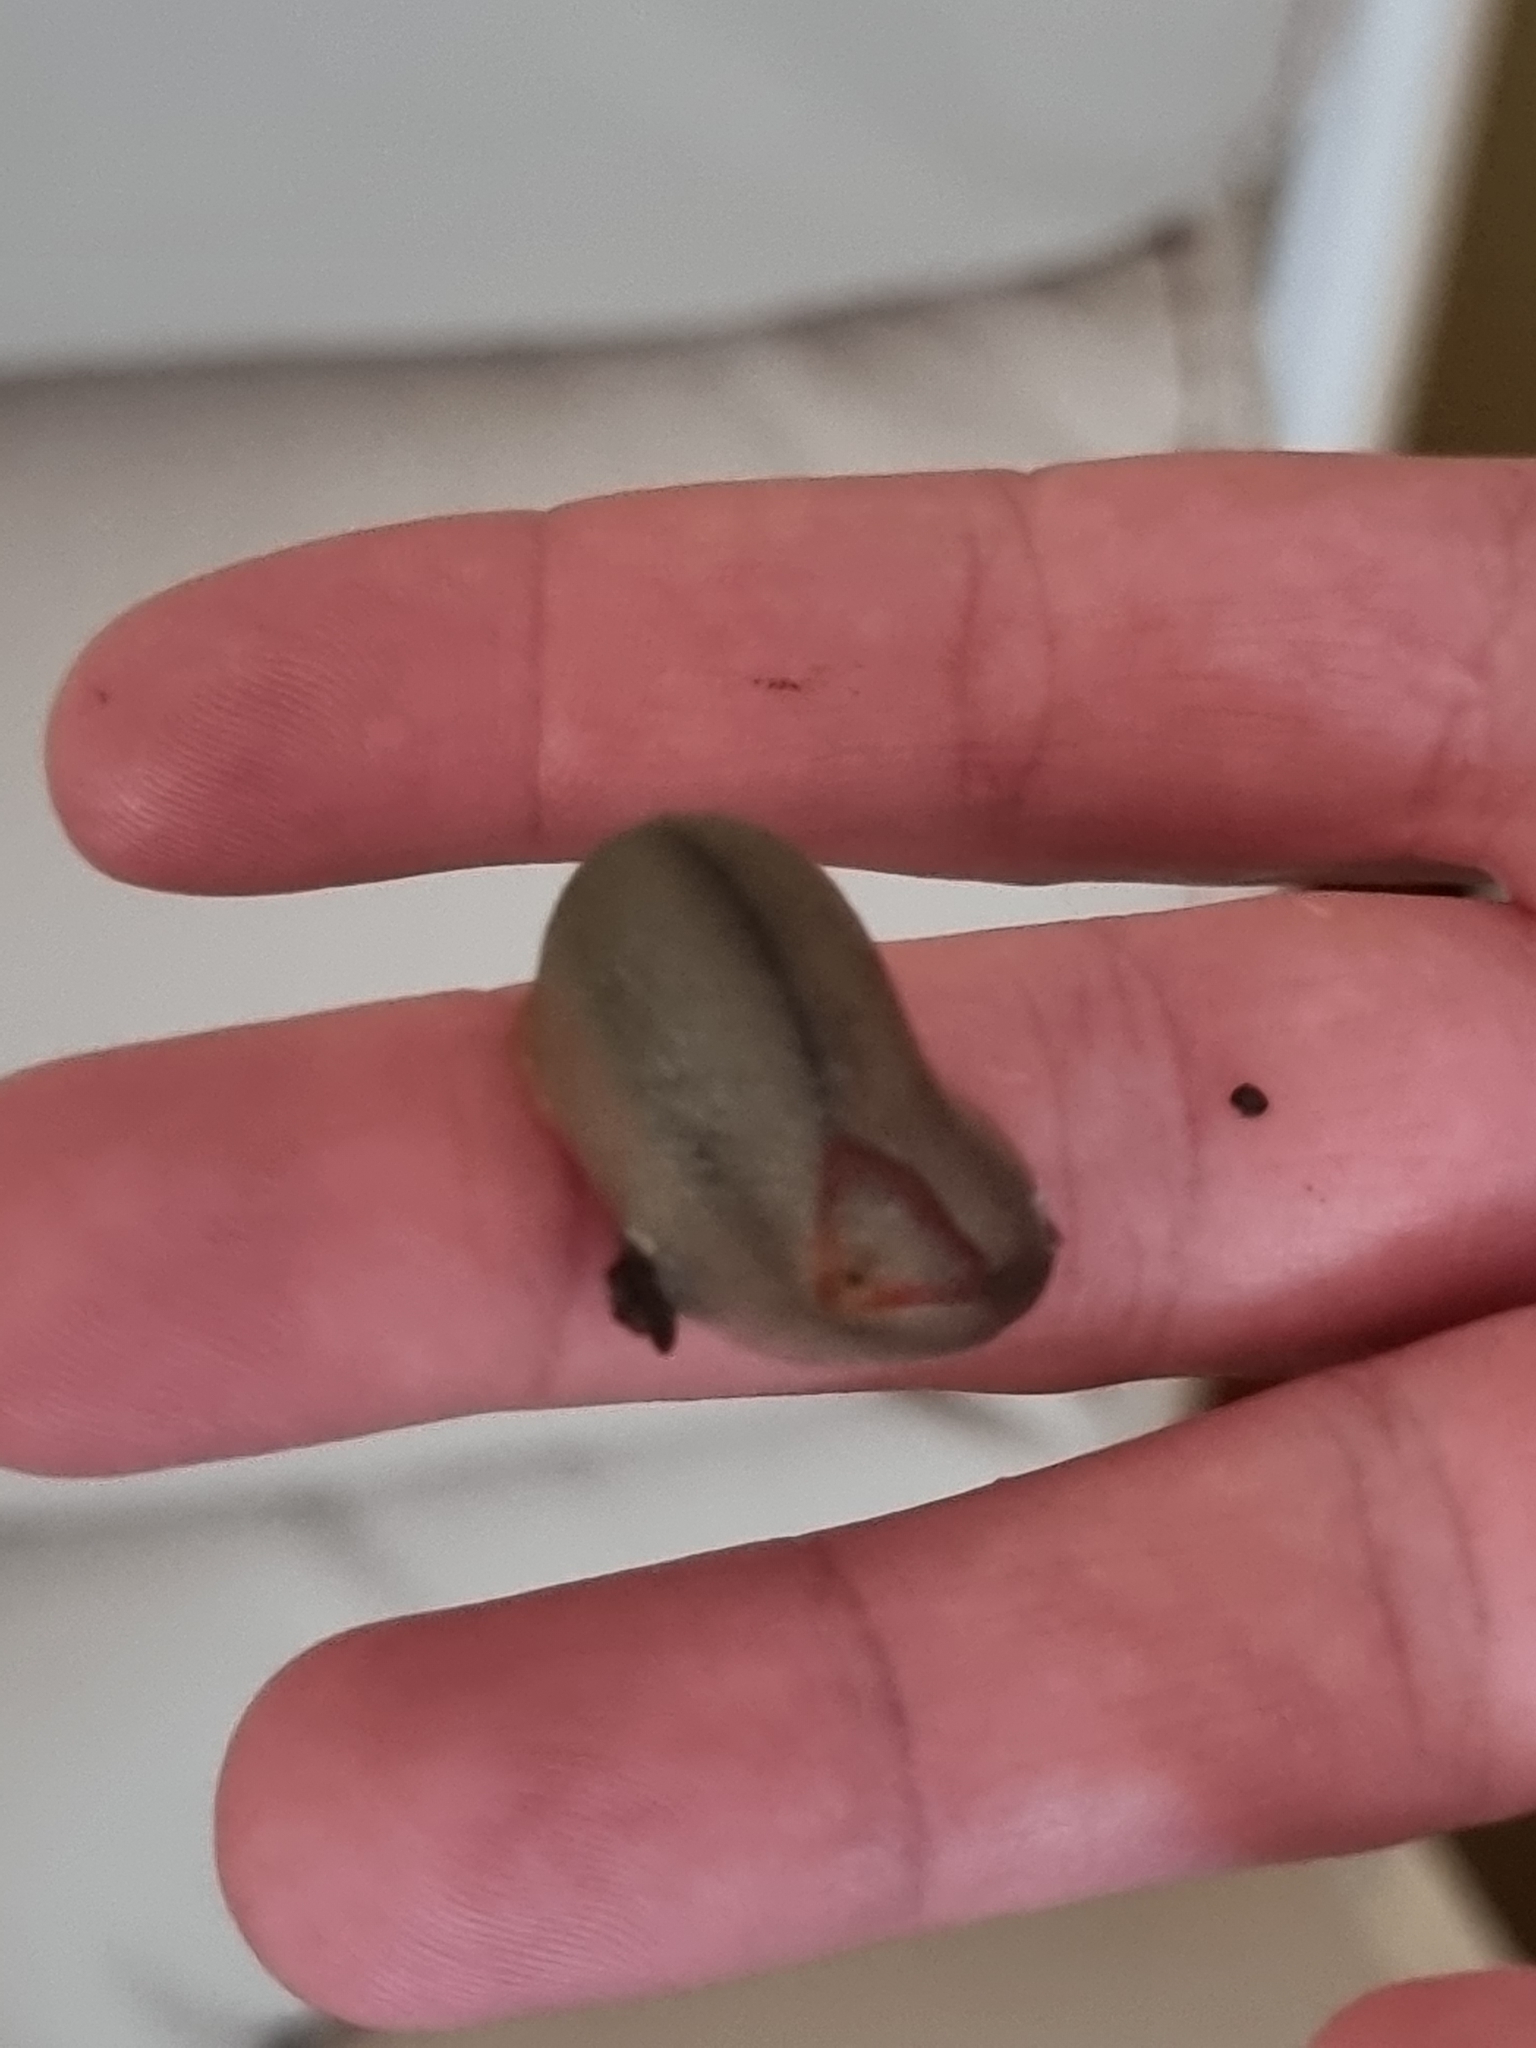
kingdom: Animalia
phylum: Mollusca
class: Gastropoda
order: Stylommatophora
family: Athoracophoridae
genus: Triboniophorus
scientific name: Triboniophorus graeffei
